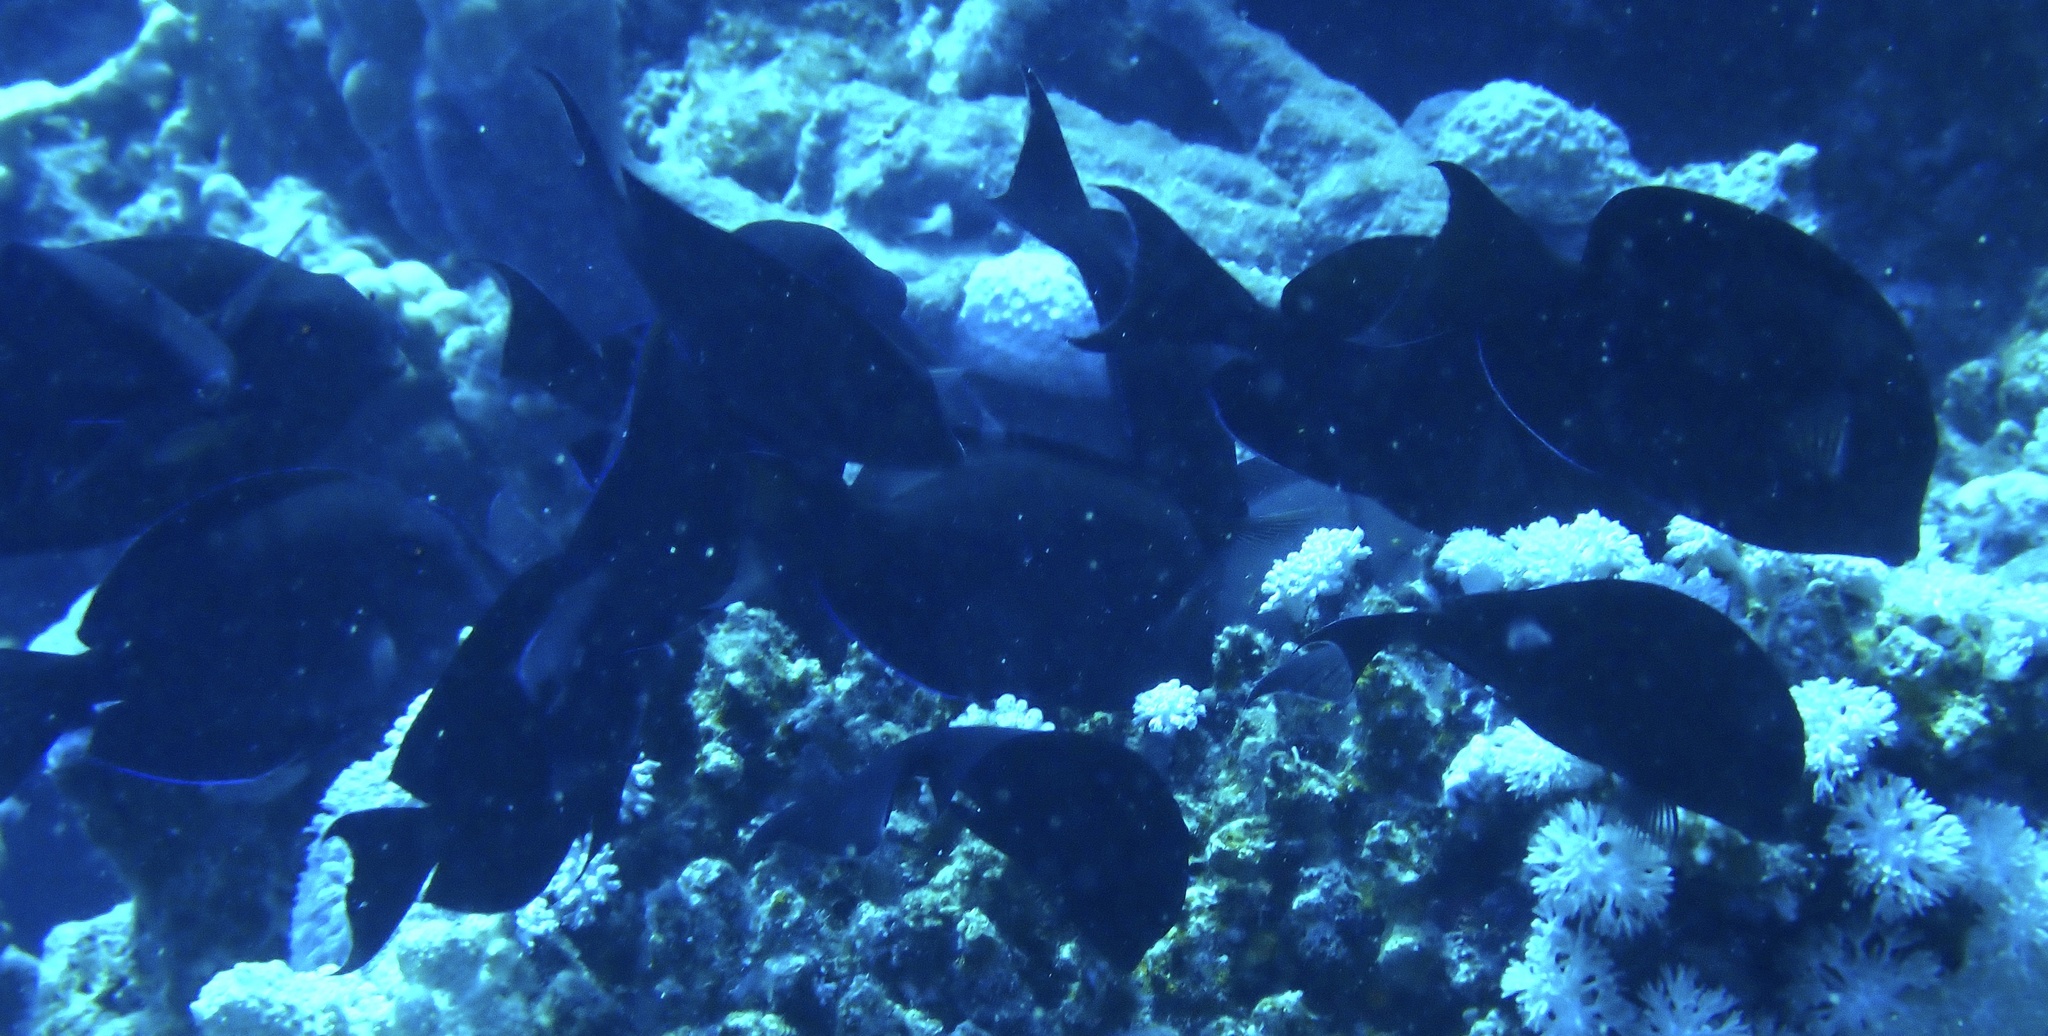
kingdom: Animalia
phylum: Chordata
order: Perciformes
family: Acanthuridae
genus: Acanthurus
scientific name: Acanthurus nigrofuscus
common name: Blackspot surgeonfish
